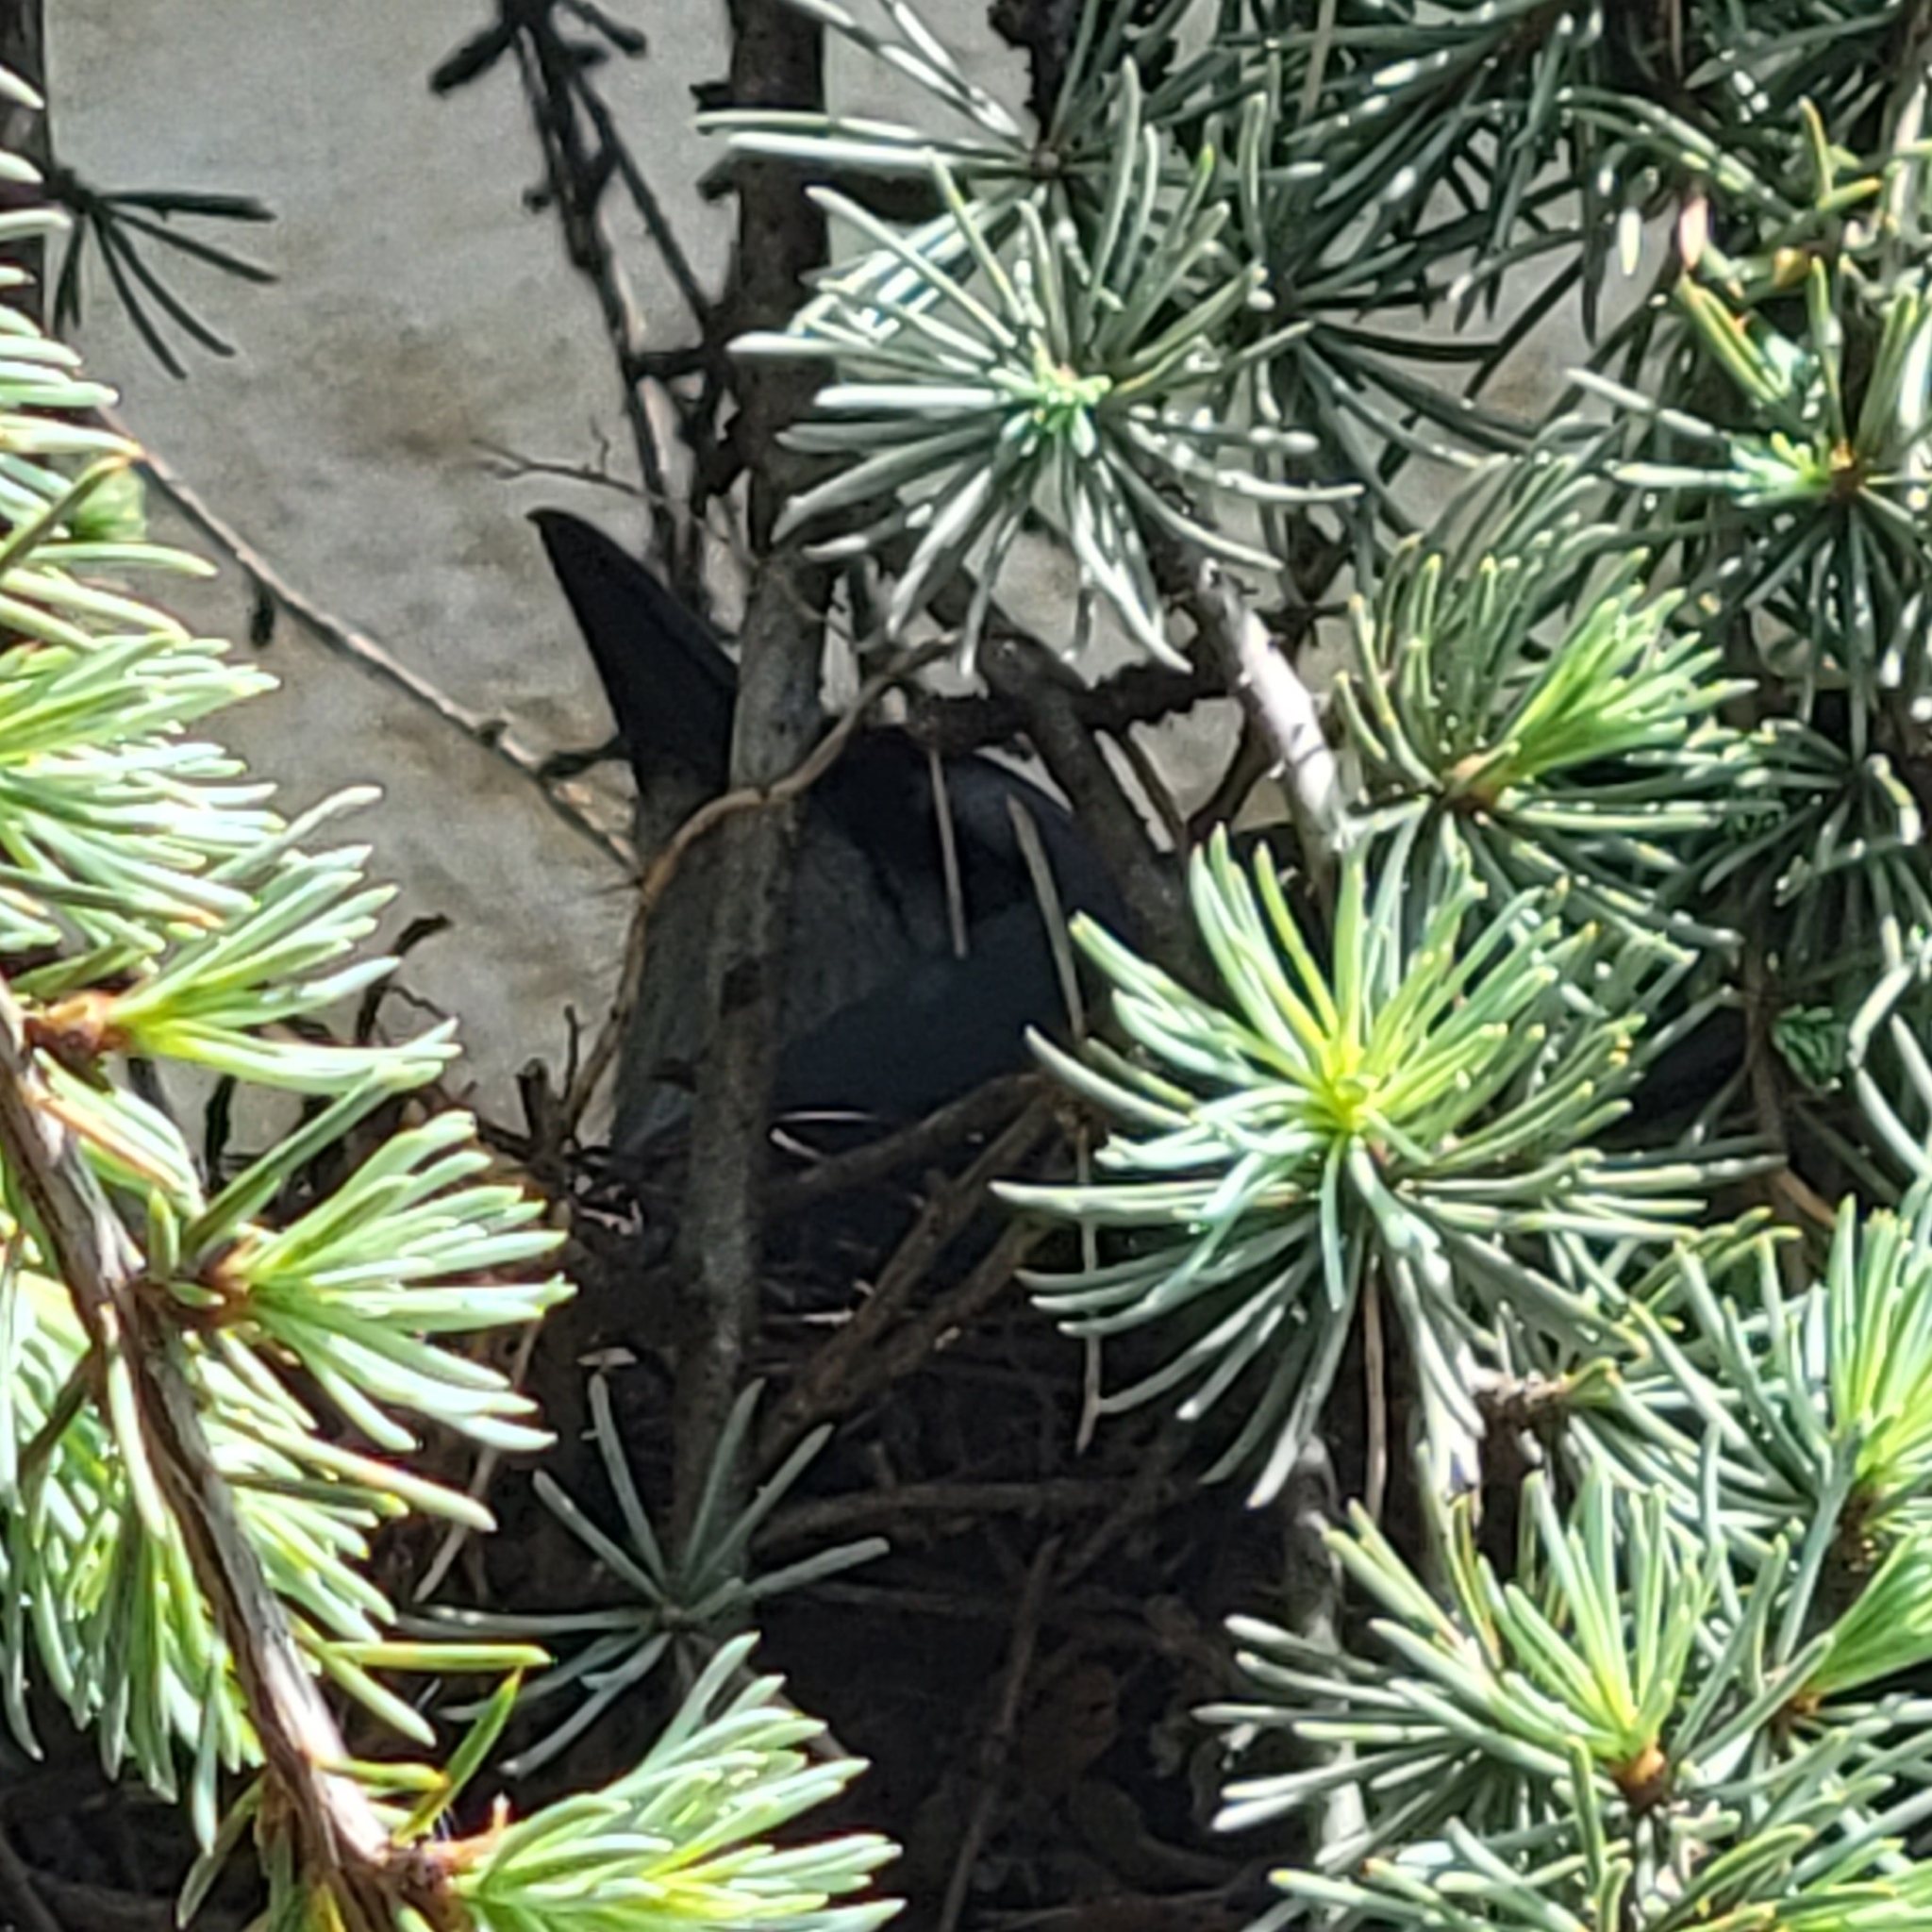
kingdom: Animalia
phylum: Chordata
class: Aves
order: Passeriformes
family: Corvidae
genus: Cyanocitta
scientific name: Cyanocitta cristata
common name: Blue jay
